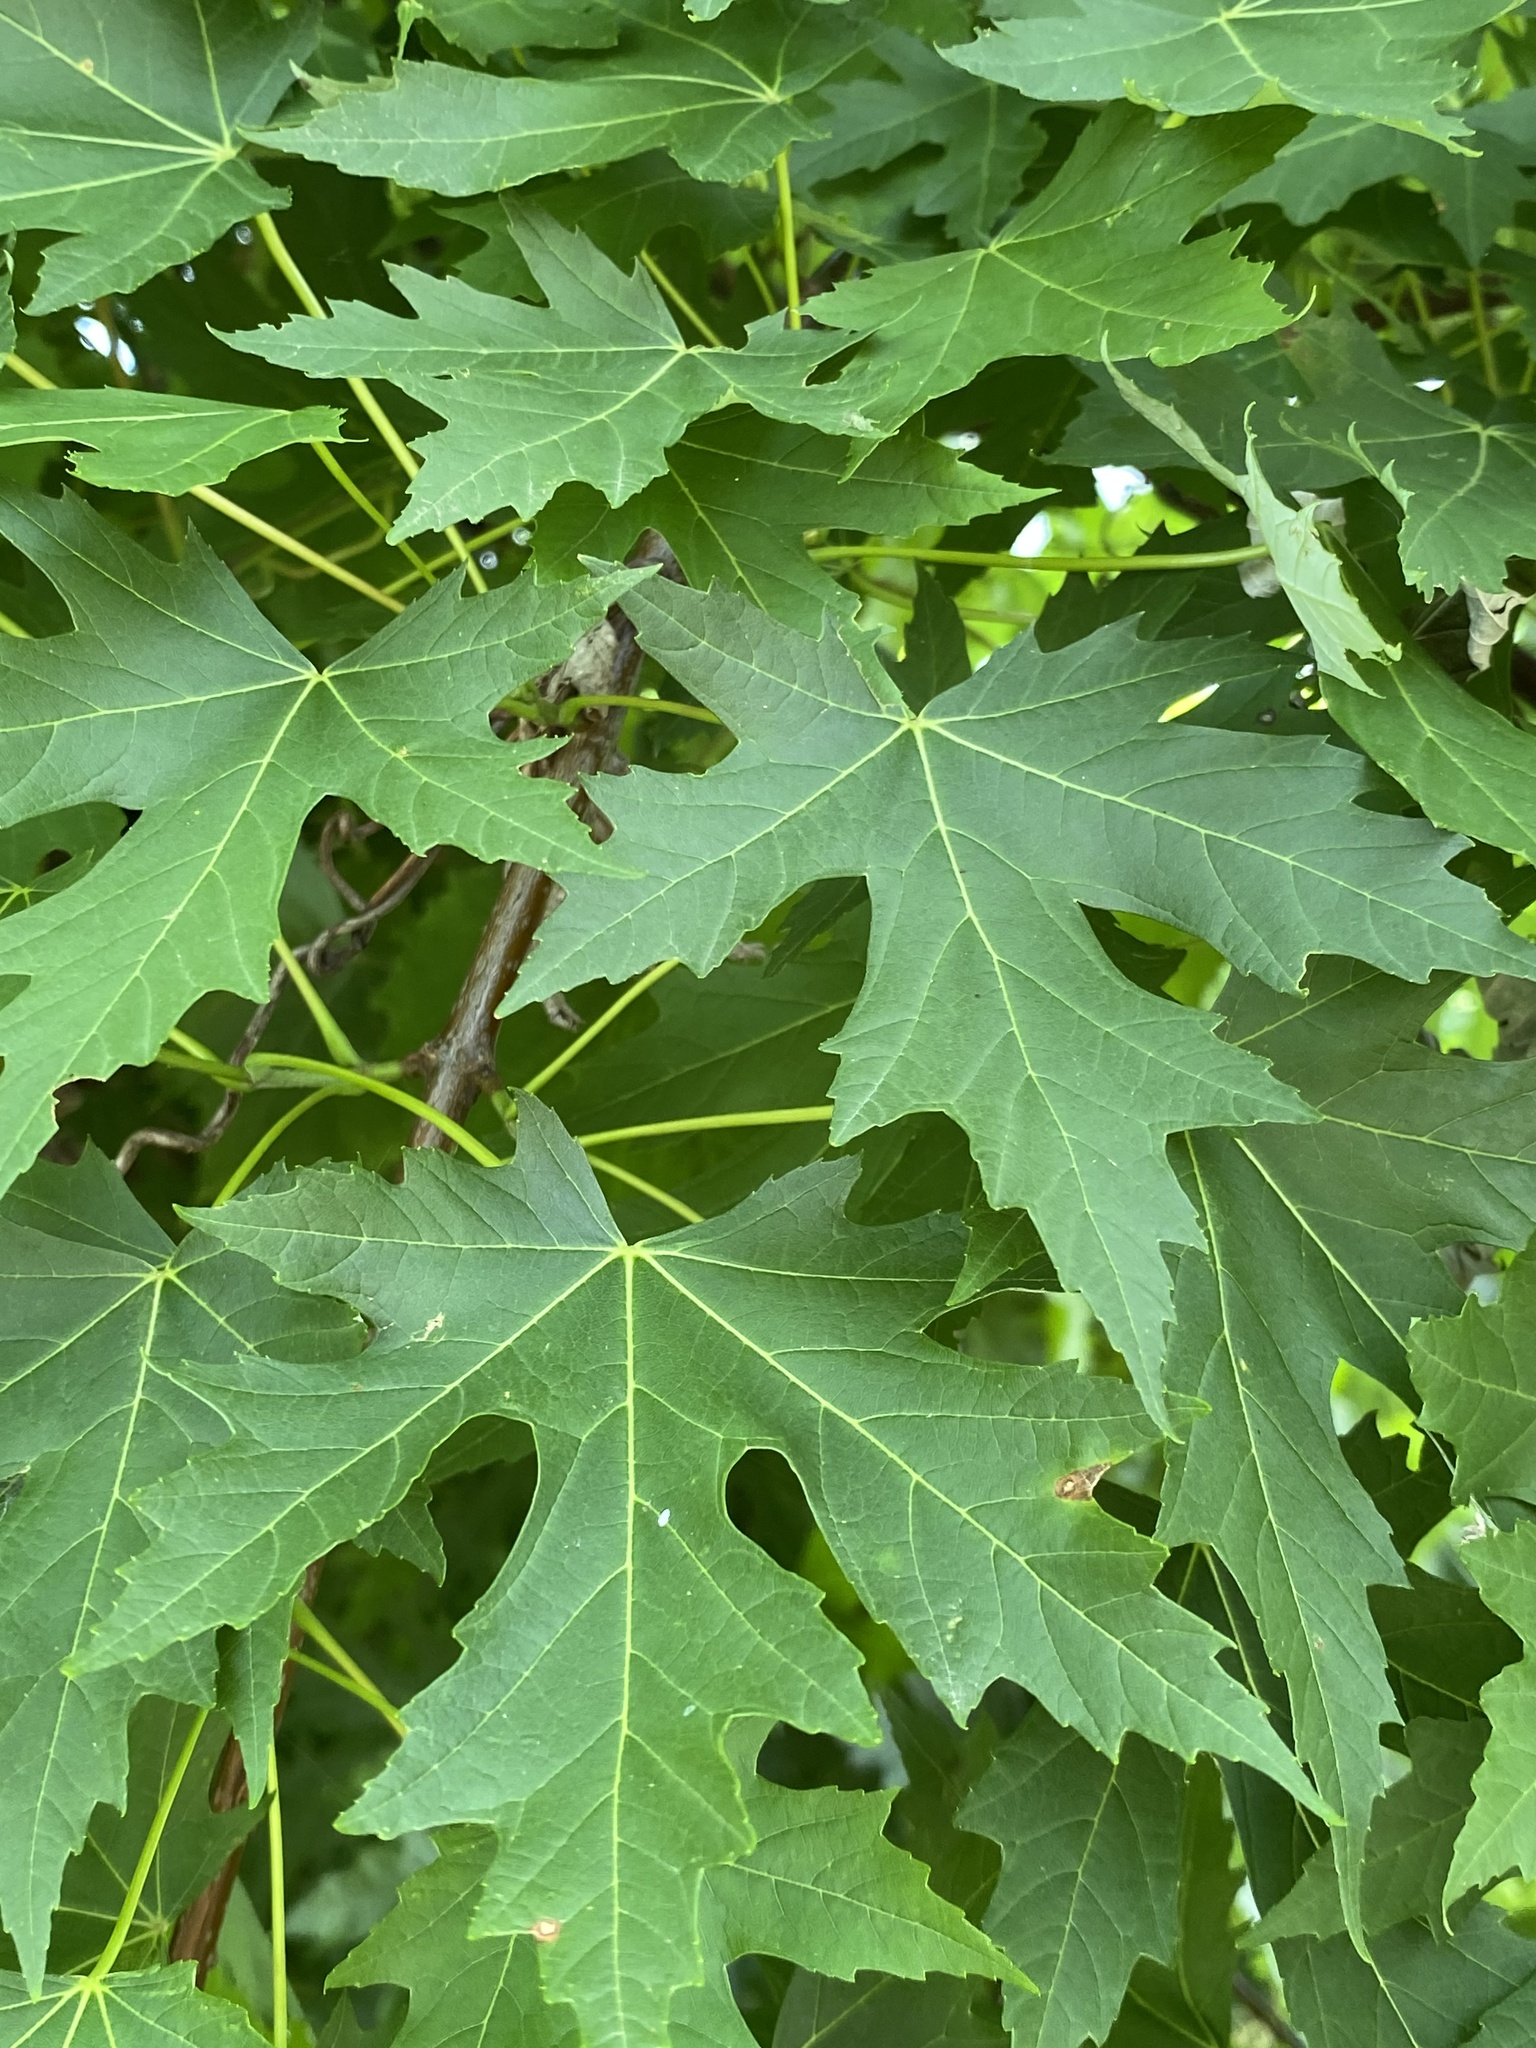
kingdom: Plantae
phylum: Tracheophyta
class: Magnoliopsida
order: Sapindales
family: Sapindaceae
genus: Acer
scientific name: Acer saccharinum
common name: Silver maple
